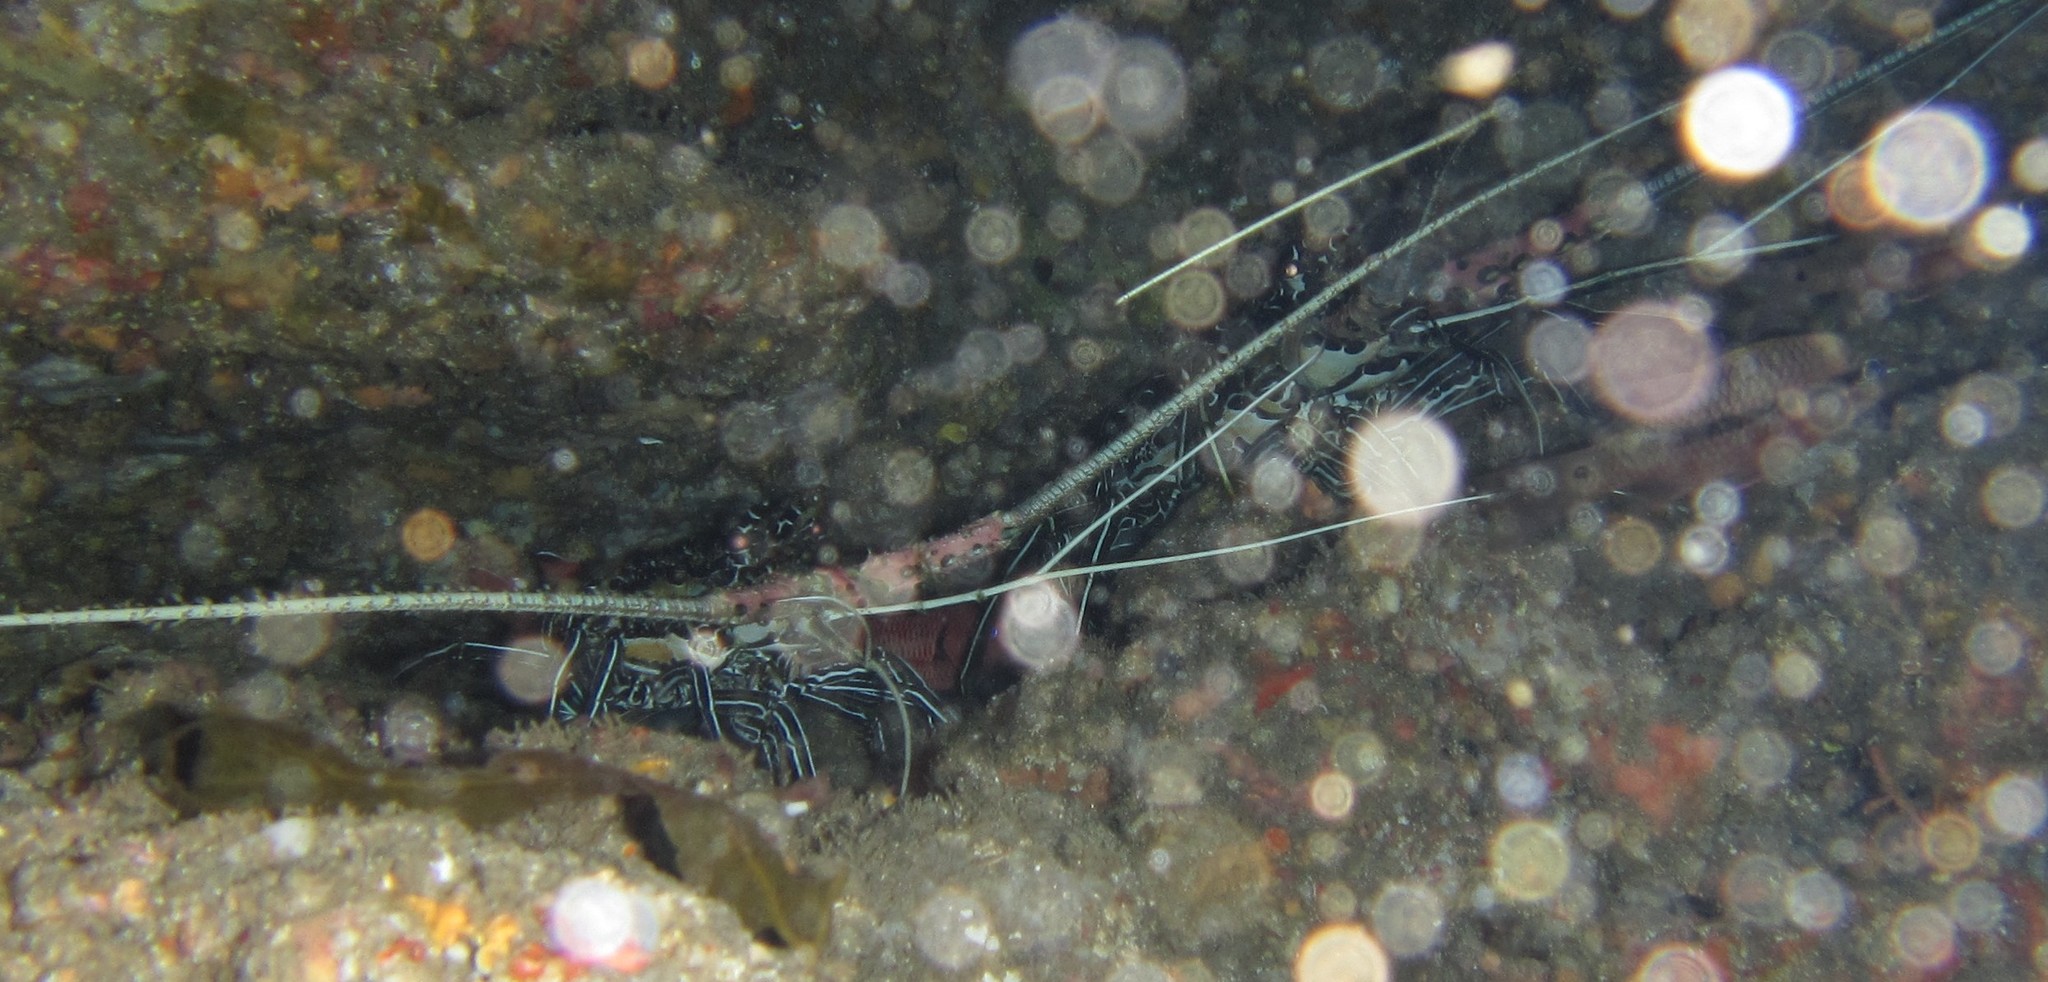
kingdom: Animalia
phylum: Arthropoda
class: Malacostraca
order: Decapoda
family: Palinuridae
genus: Panulirus
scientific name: Panulirus versicolor
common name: Painted spiny lobster
